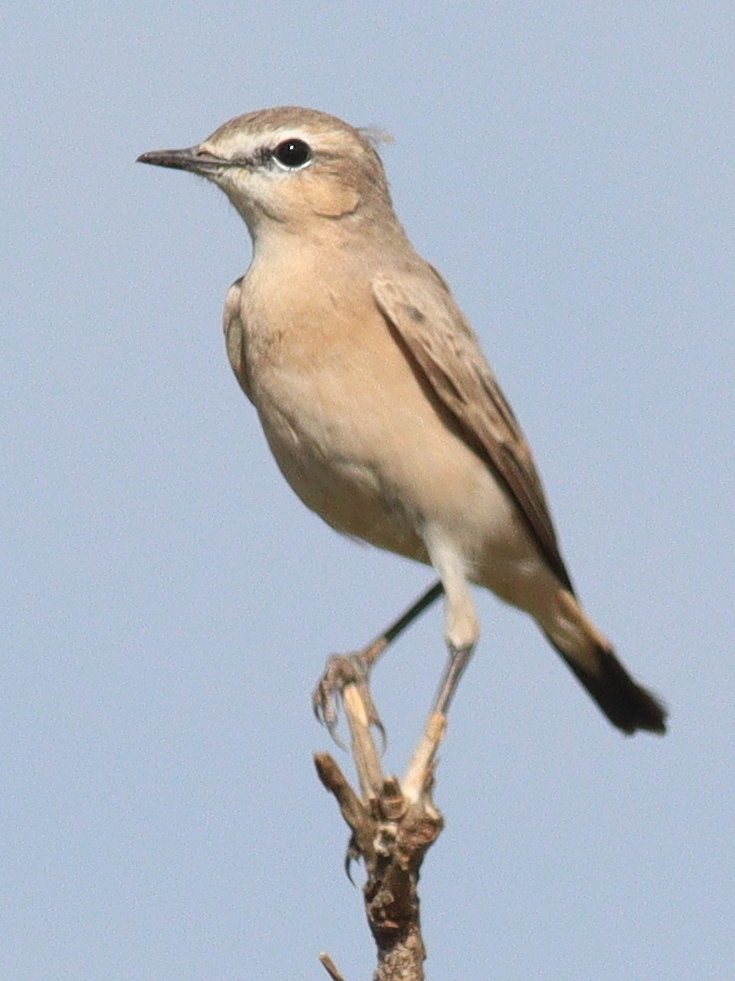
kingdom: Animalia
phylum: Chordata
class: Aves
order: Passeriformes
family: Muscicapidae
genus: Oenanthe
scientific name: Oenanthe isabellina
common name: Isabelline wheatear
